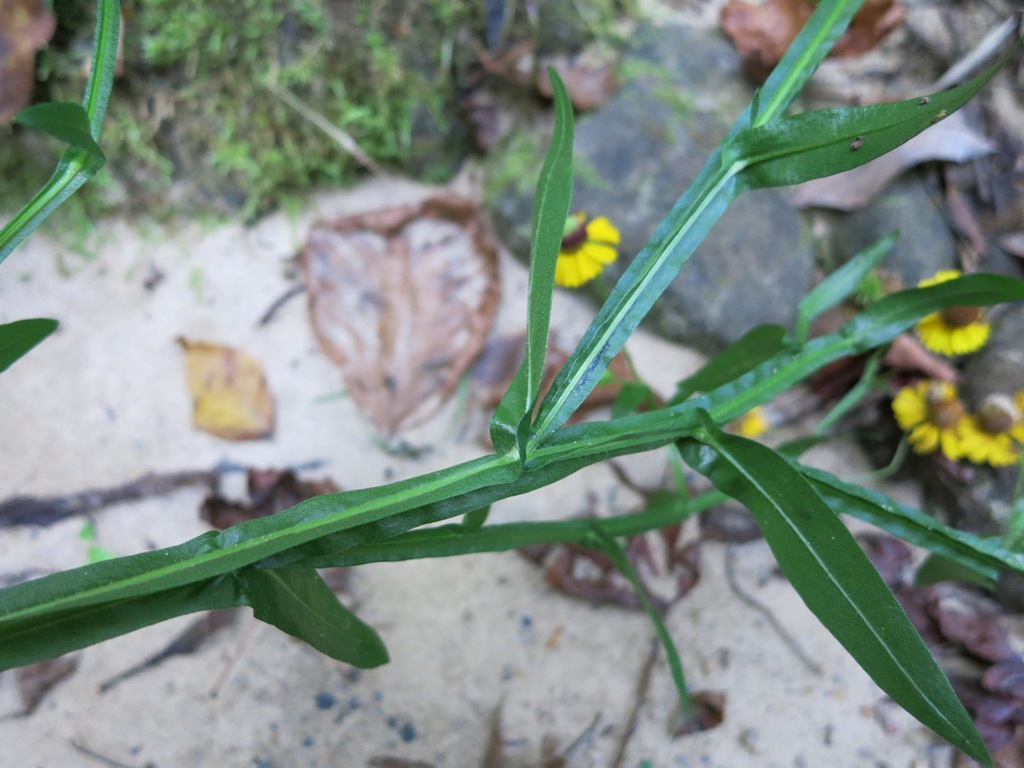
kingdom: Plantae
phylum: Tracheophyta
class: Magnoliopsida
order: Asterales
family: Asteraceae
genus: Helenium
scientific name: Helenium flexuosum
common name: Naked-flowered sneezeweed
